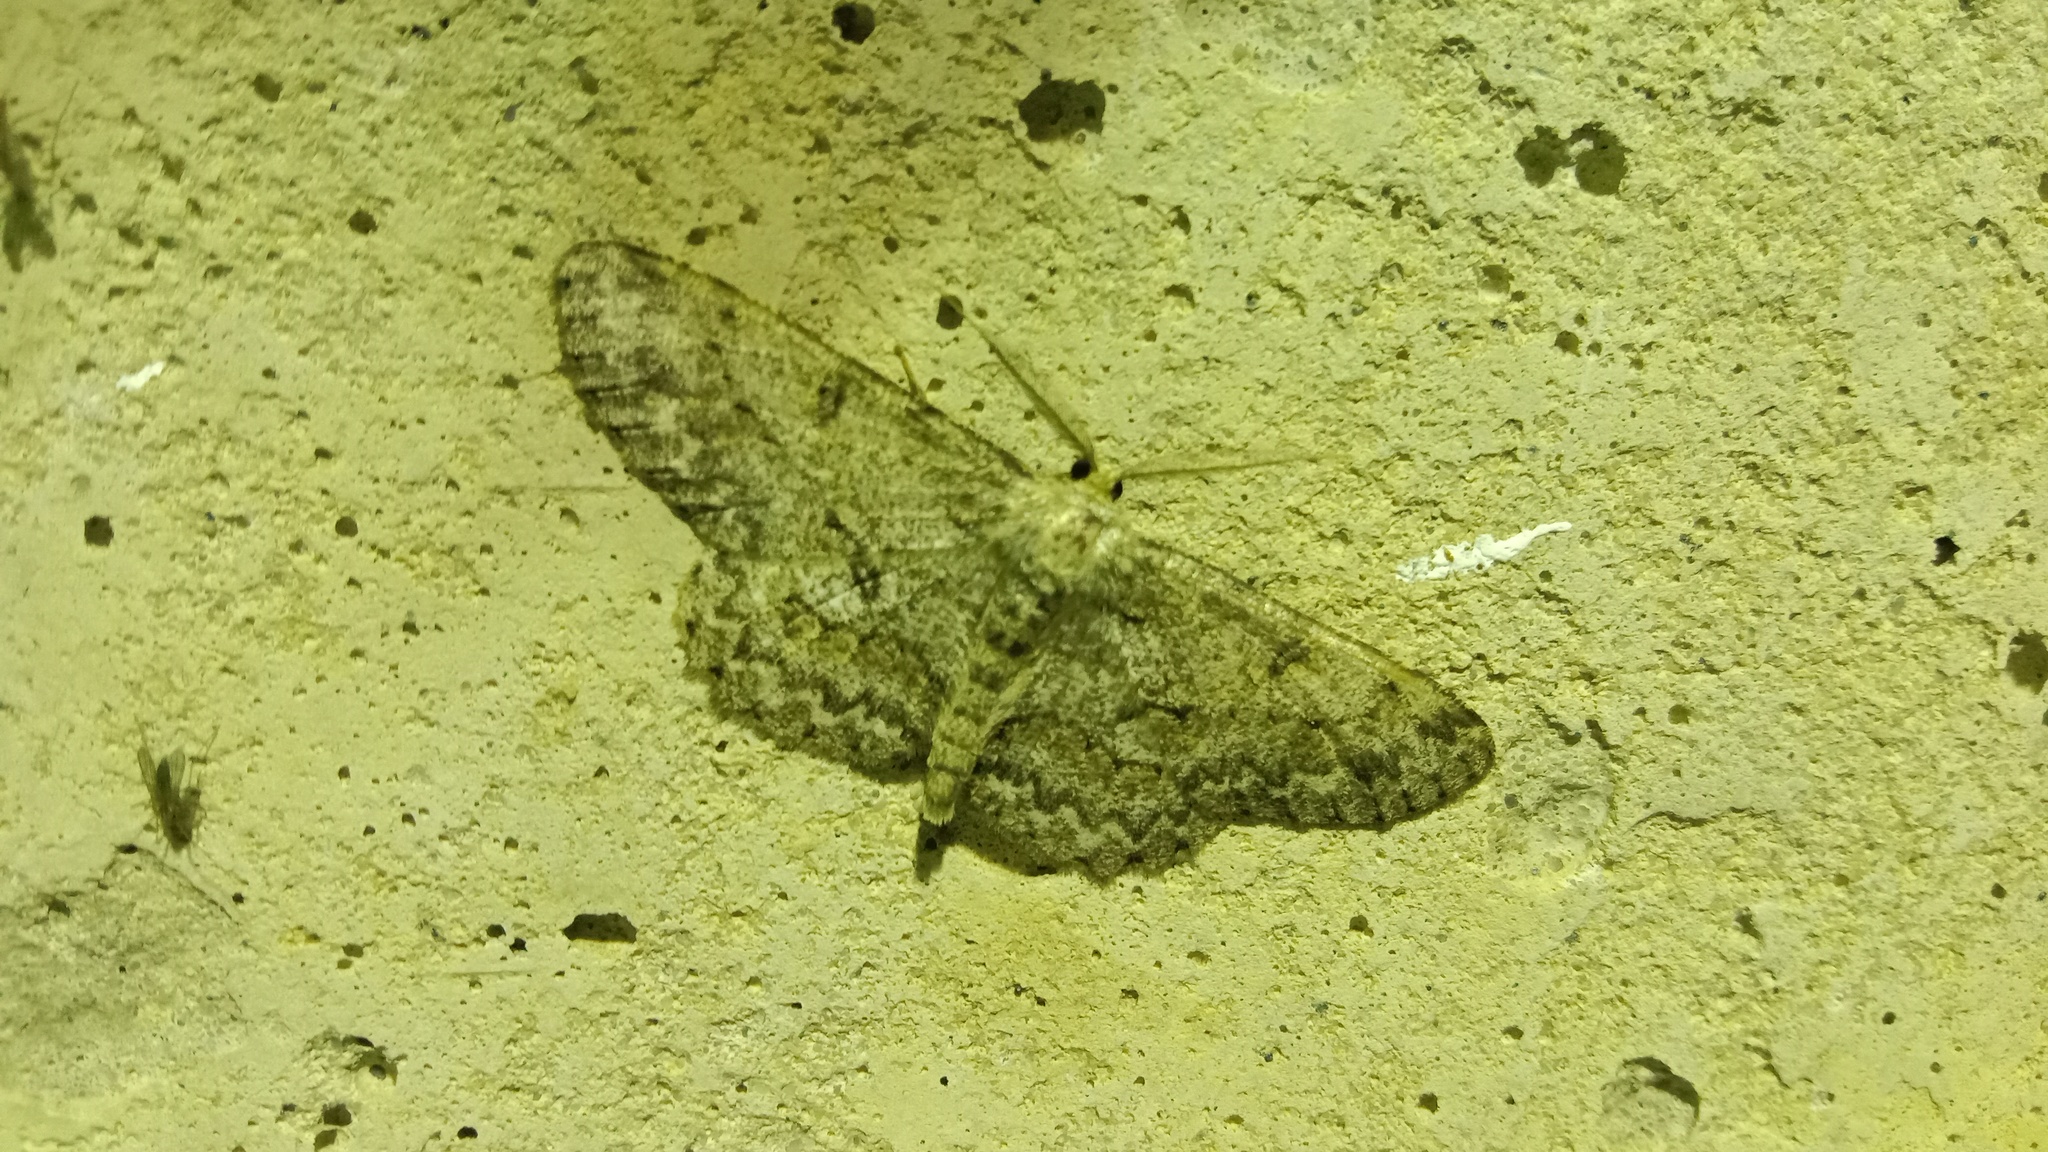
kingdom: Animalia
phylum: Arthropoda
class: Insecta
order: Lepidoptera
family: Geometridae
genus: Hypomecis
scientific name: Hypomecis punctinalis
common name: Pale oak beauty
